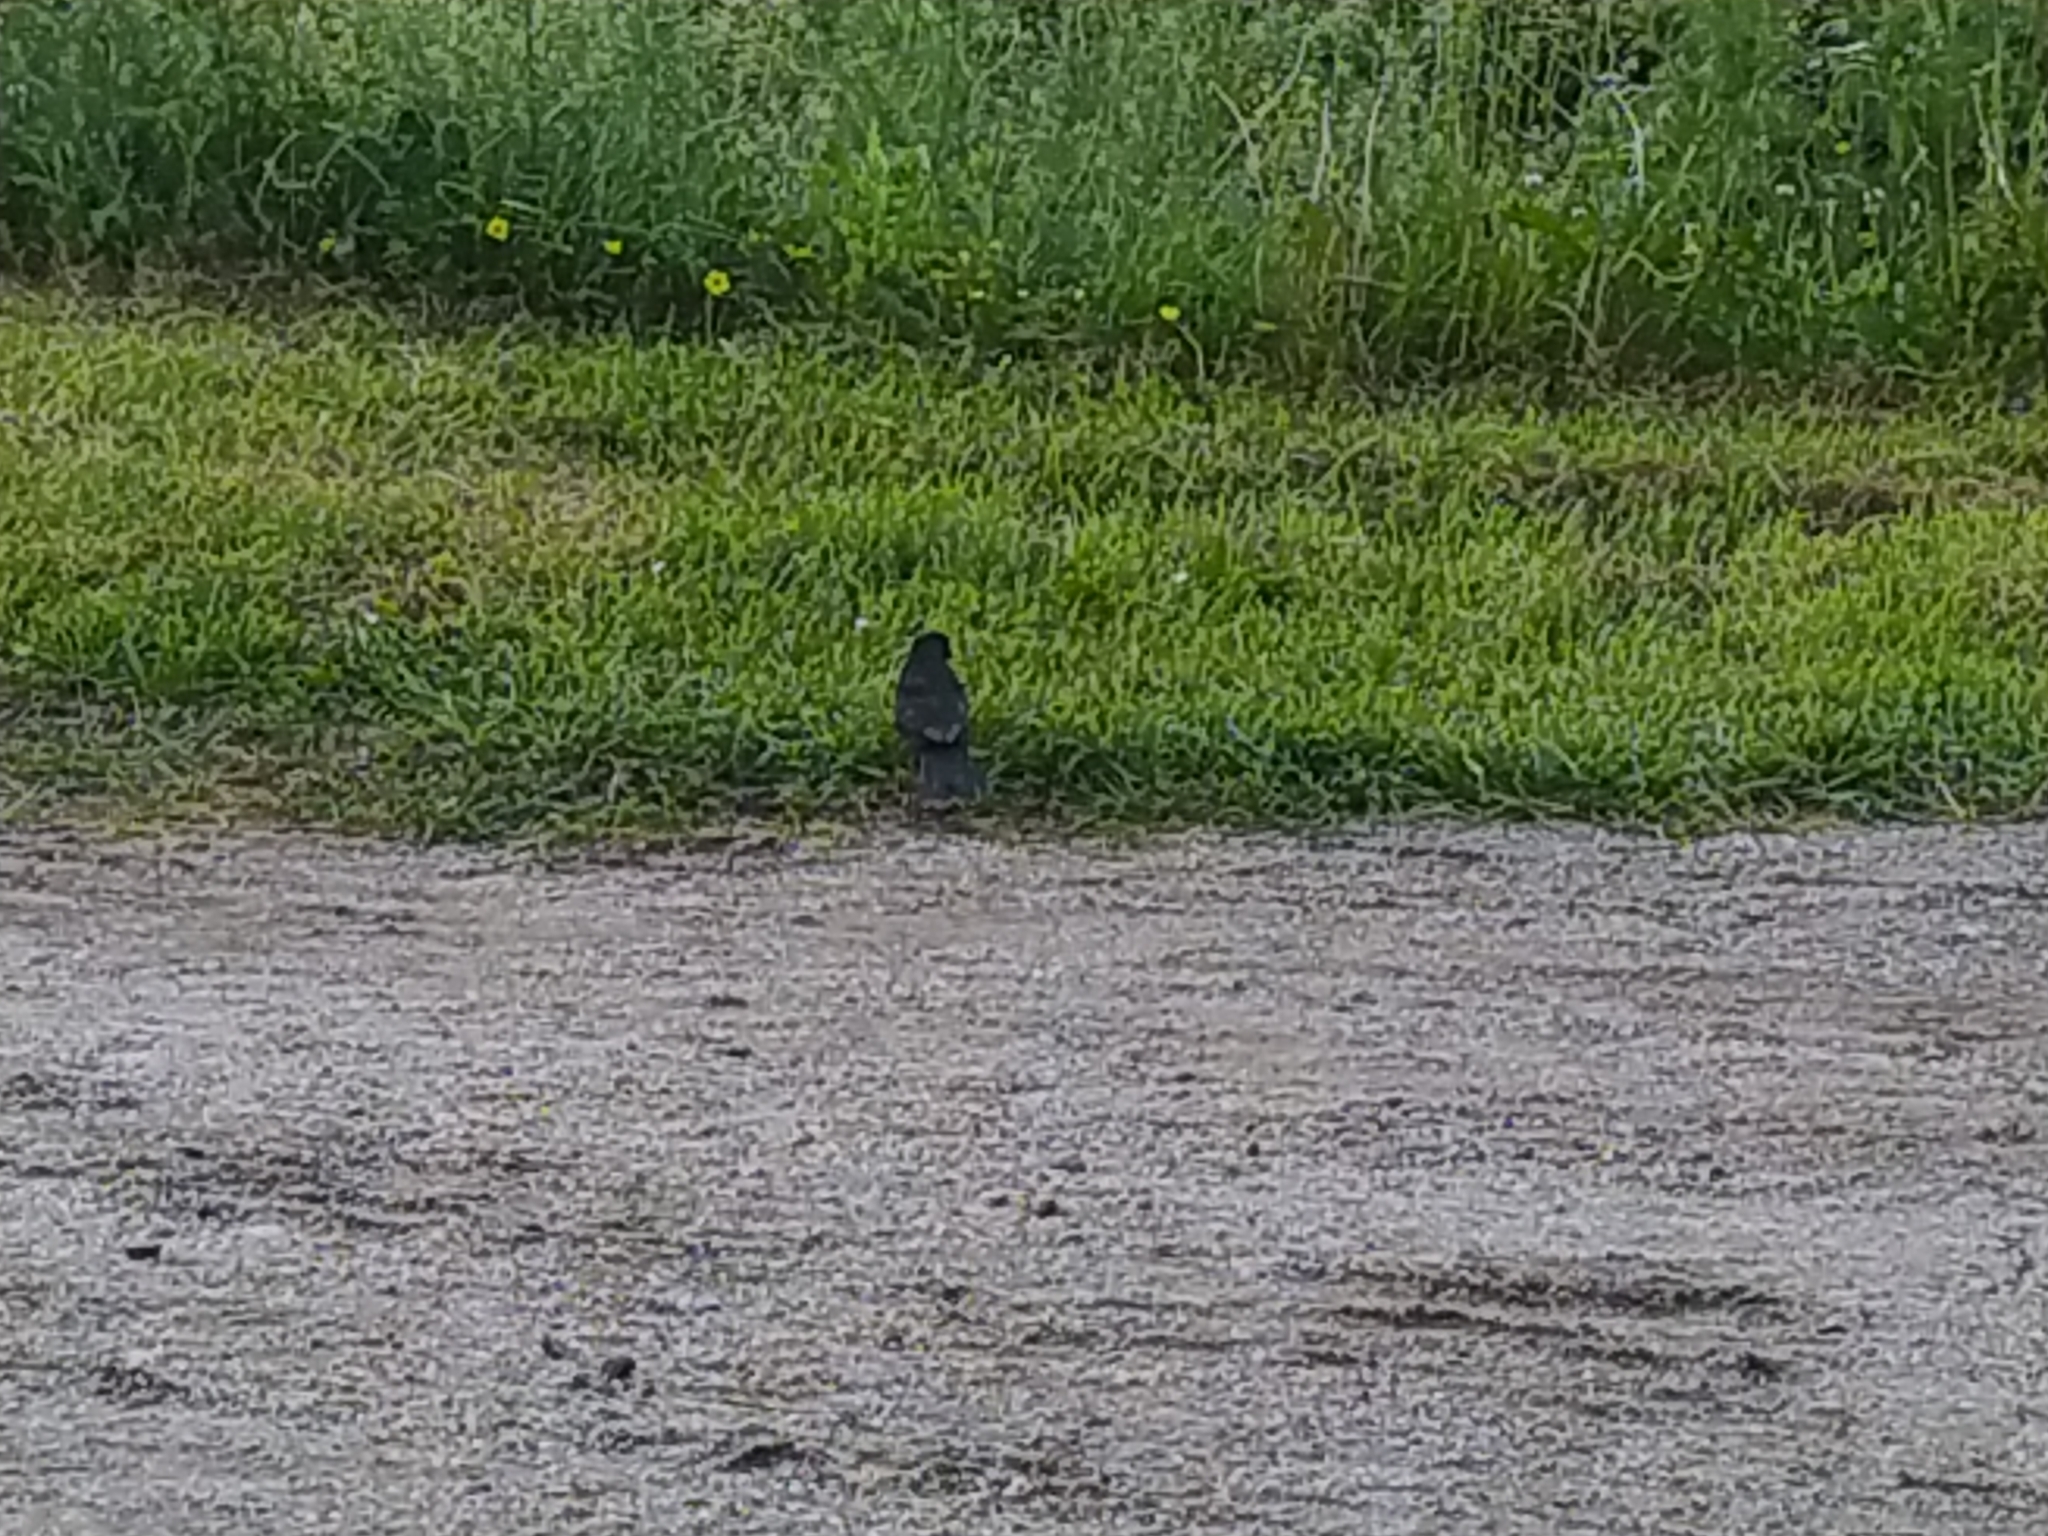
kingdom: Animalia
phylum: Chordata
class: Aves
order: Passeriformes
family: Turdidae
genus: Turdus
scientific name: Turdus merula
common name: Common blackbird
